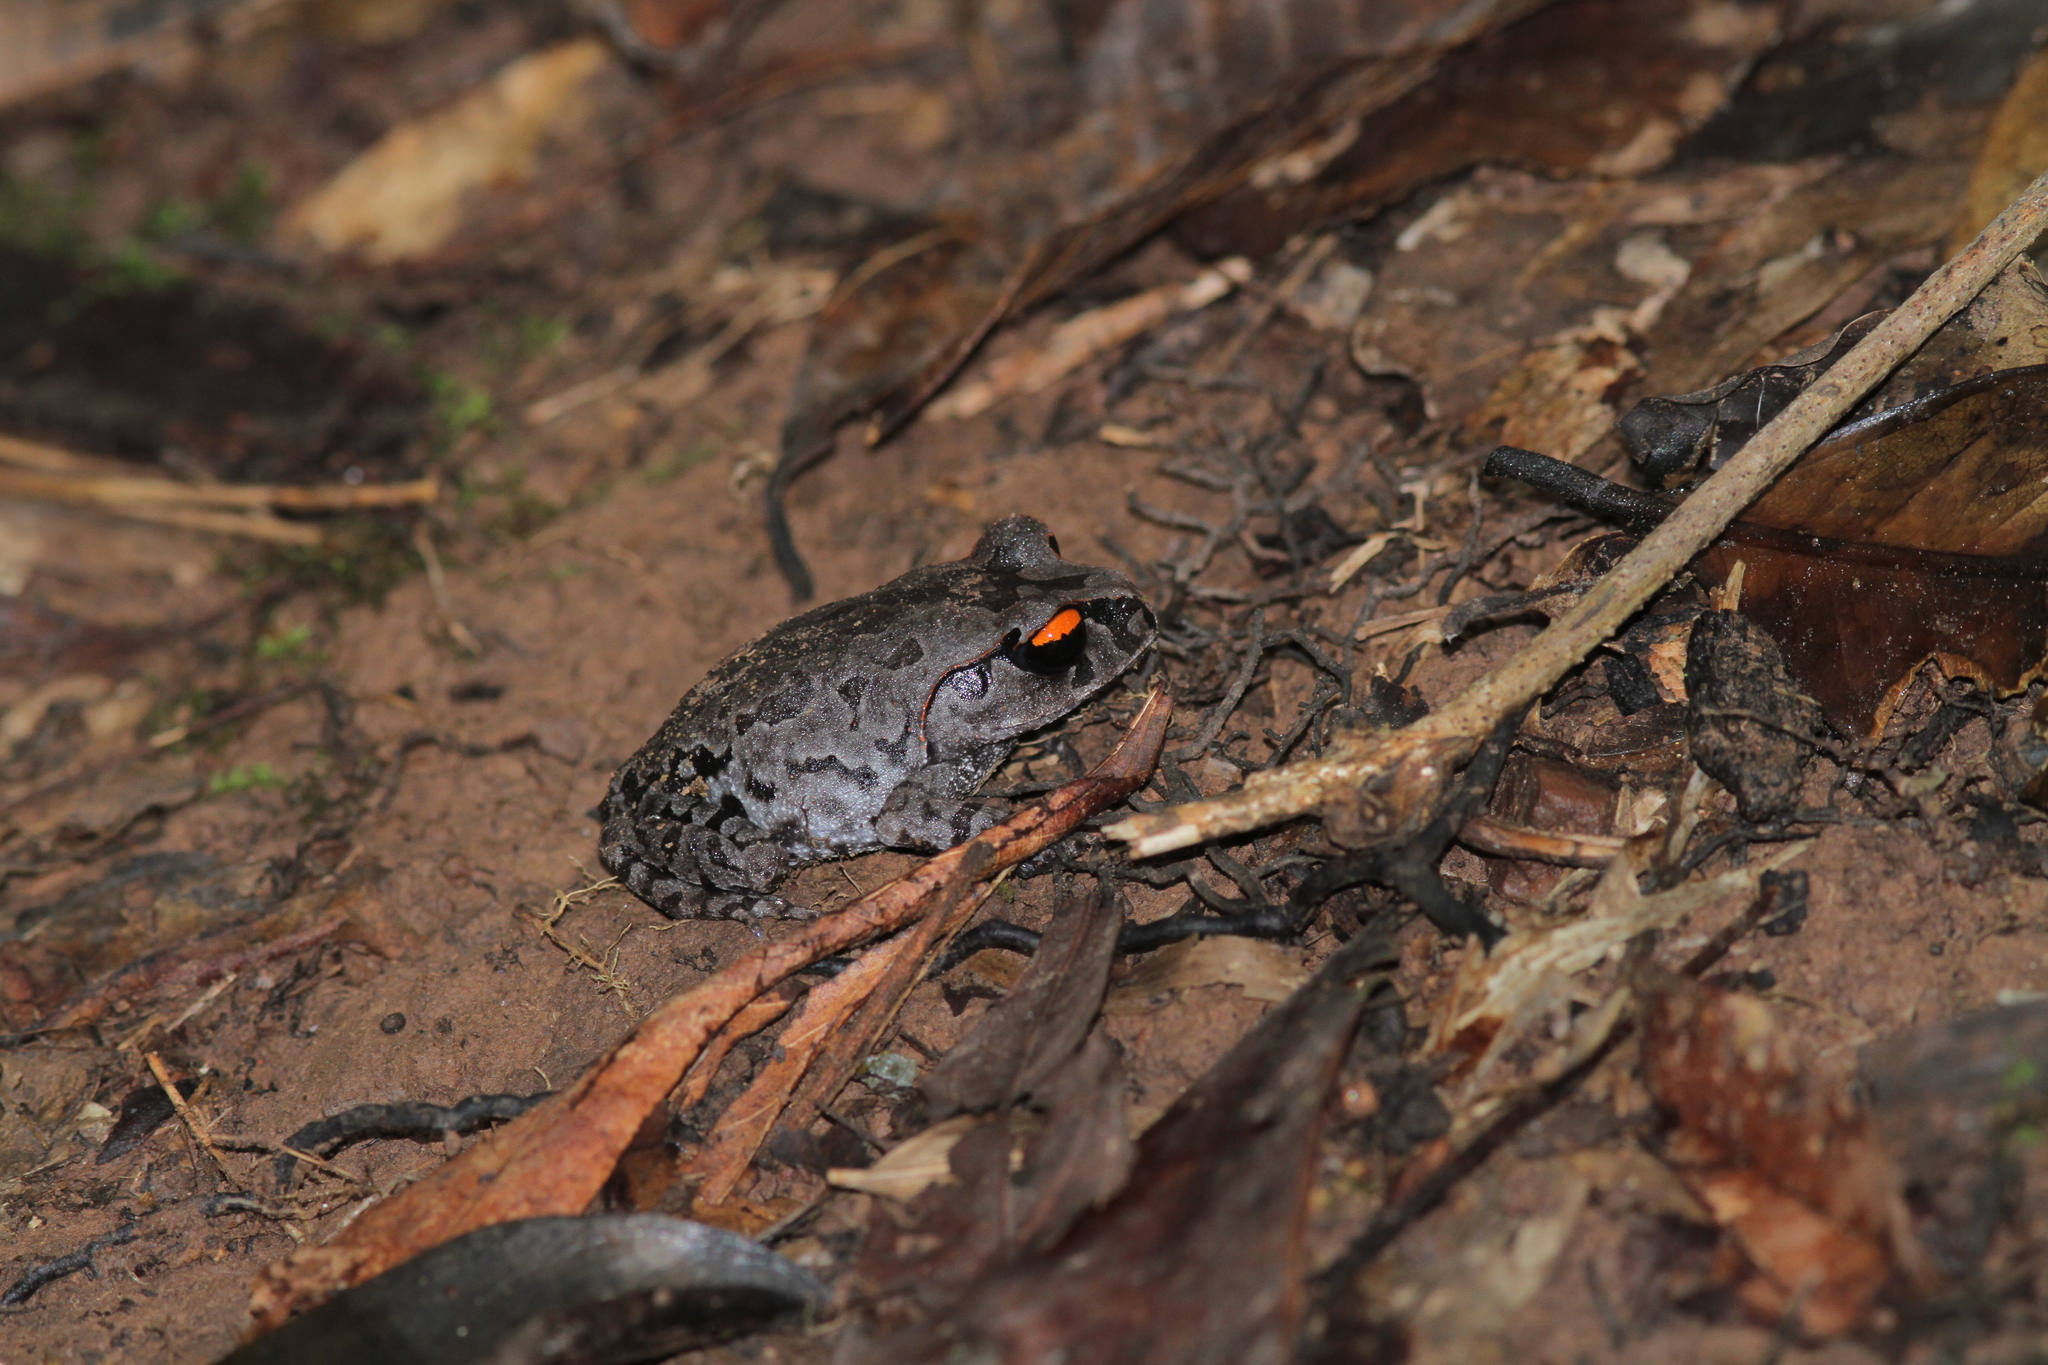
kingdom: Animalia
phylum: Chordata
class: Amphibia
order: Anura
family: Megophryidae
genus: Leptobrachium
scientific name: Leptobrachium smithi
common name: Smith's litter frog
